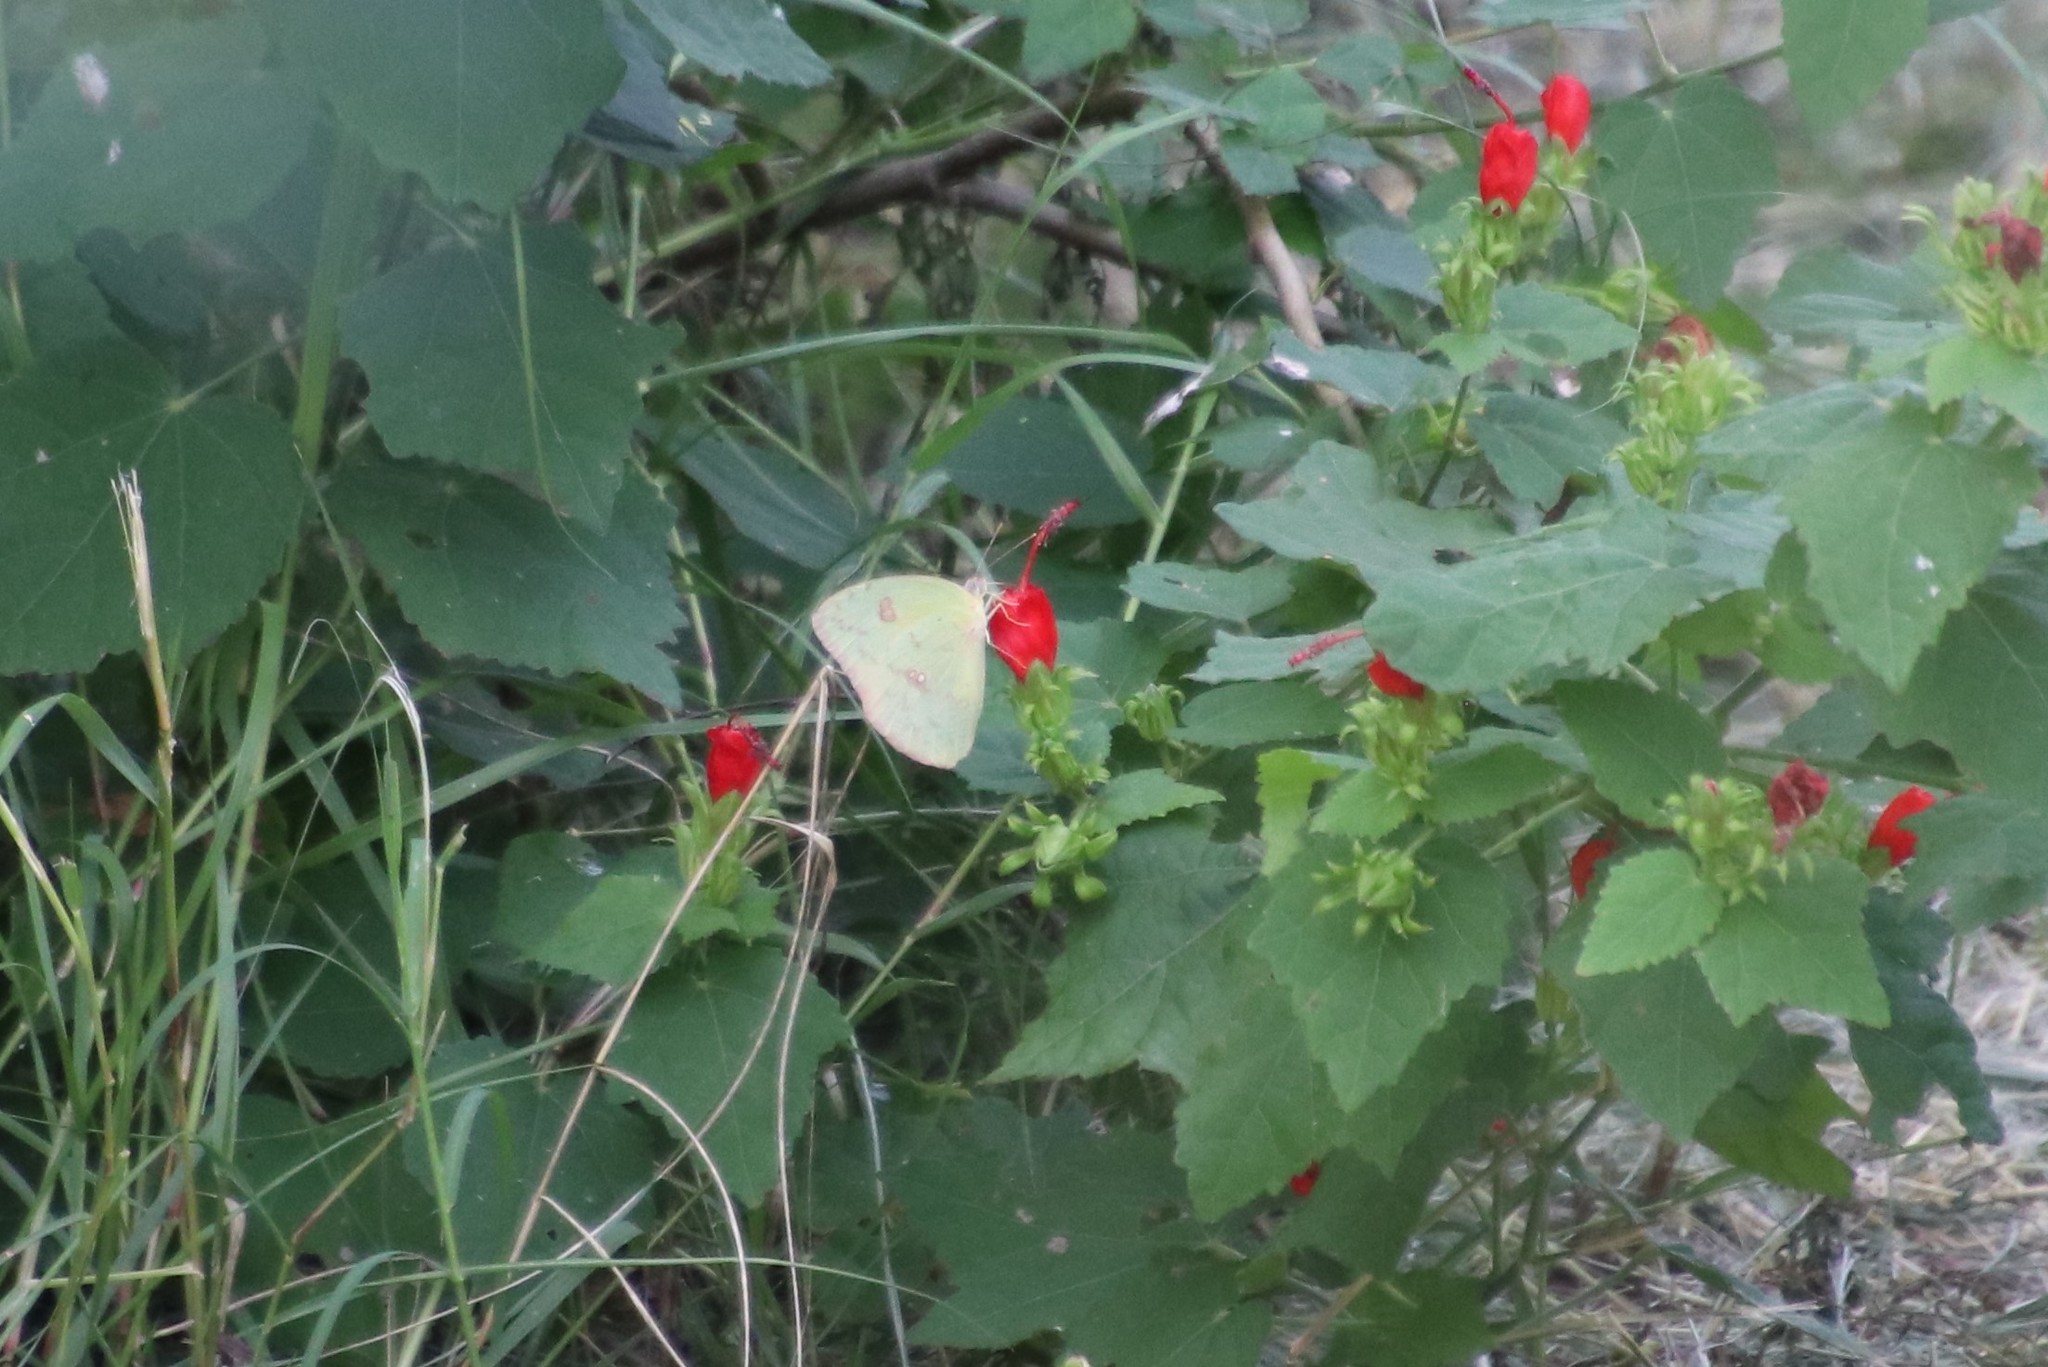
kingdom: Animalia
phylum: Arthropoda
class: Insecta
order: Lepidoptera
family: Pieridae
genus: Phoebis
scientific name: Phoebis sennae
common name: Cloudless sulphur
